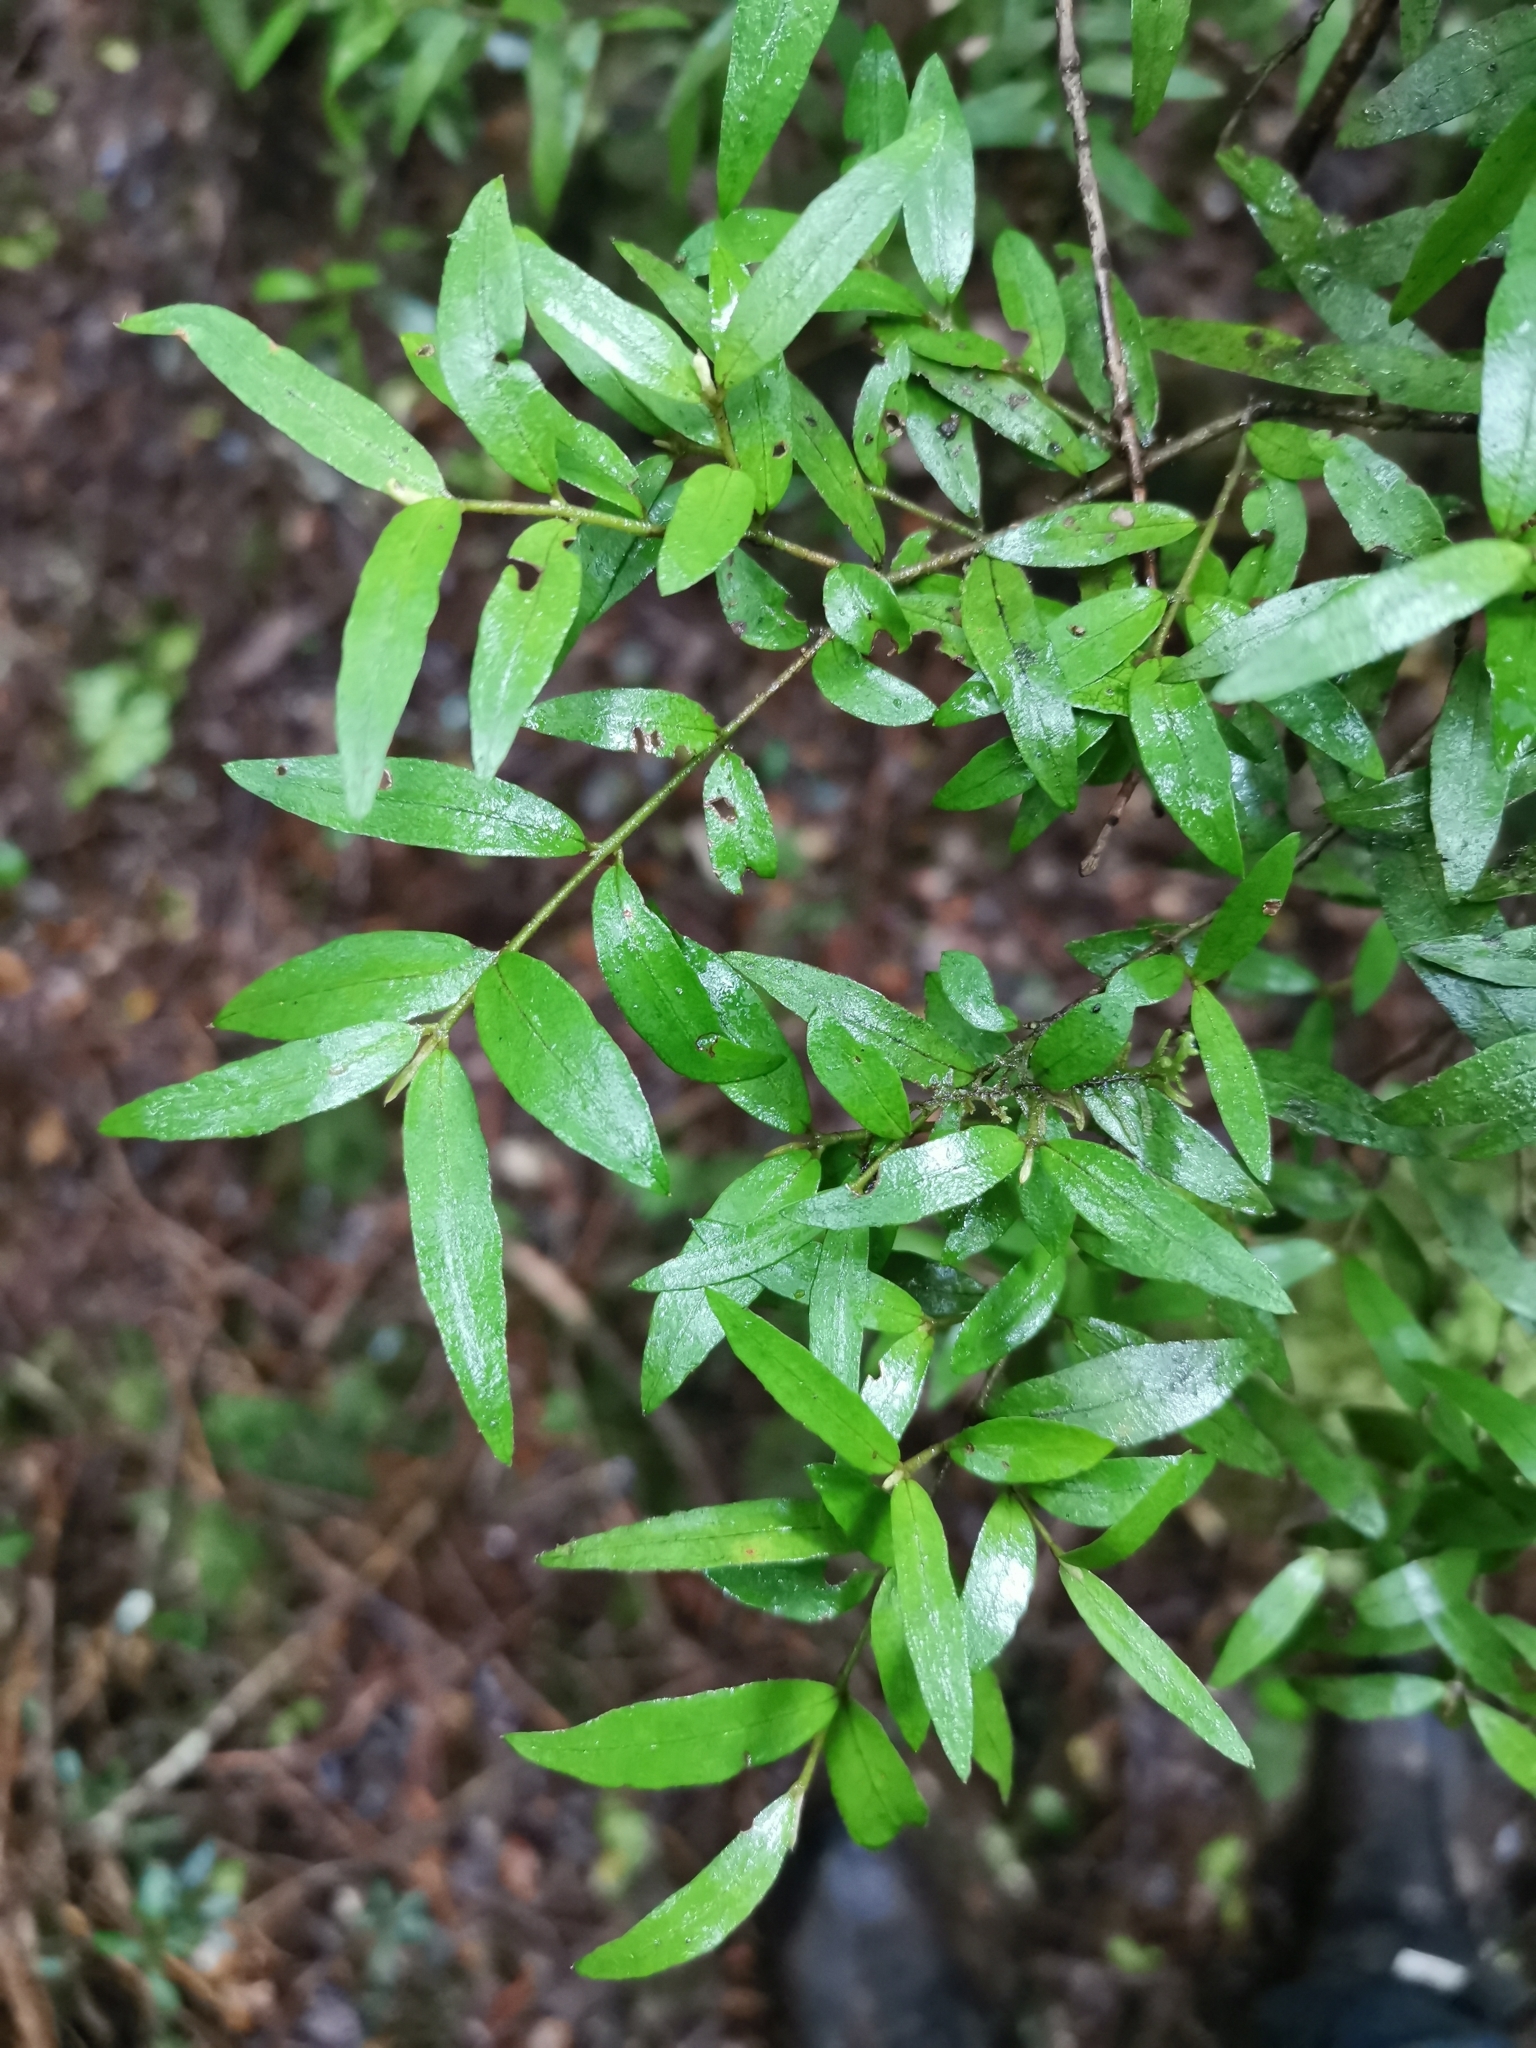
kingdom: Plantae
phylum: Tracheophyta
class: Magnoliopsida
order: Myrtales
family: Myrtaceae
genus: Myrceugenia
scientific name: Myrceugenia parvifolia
